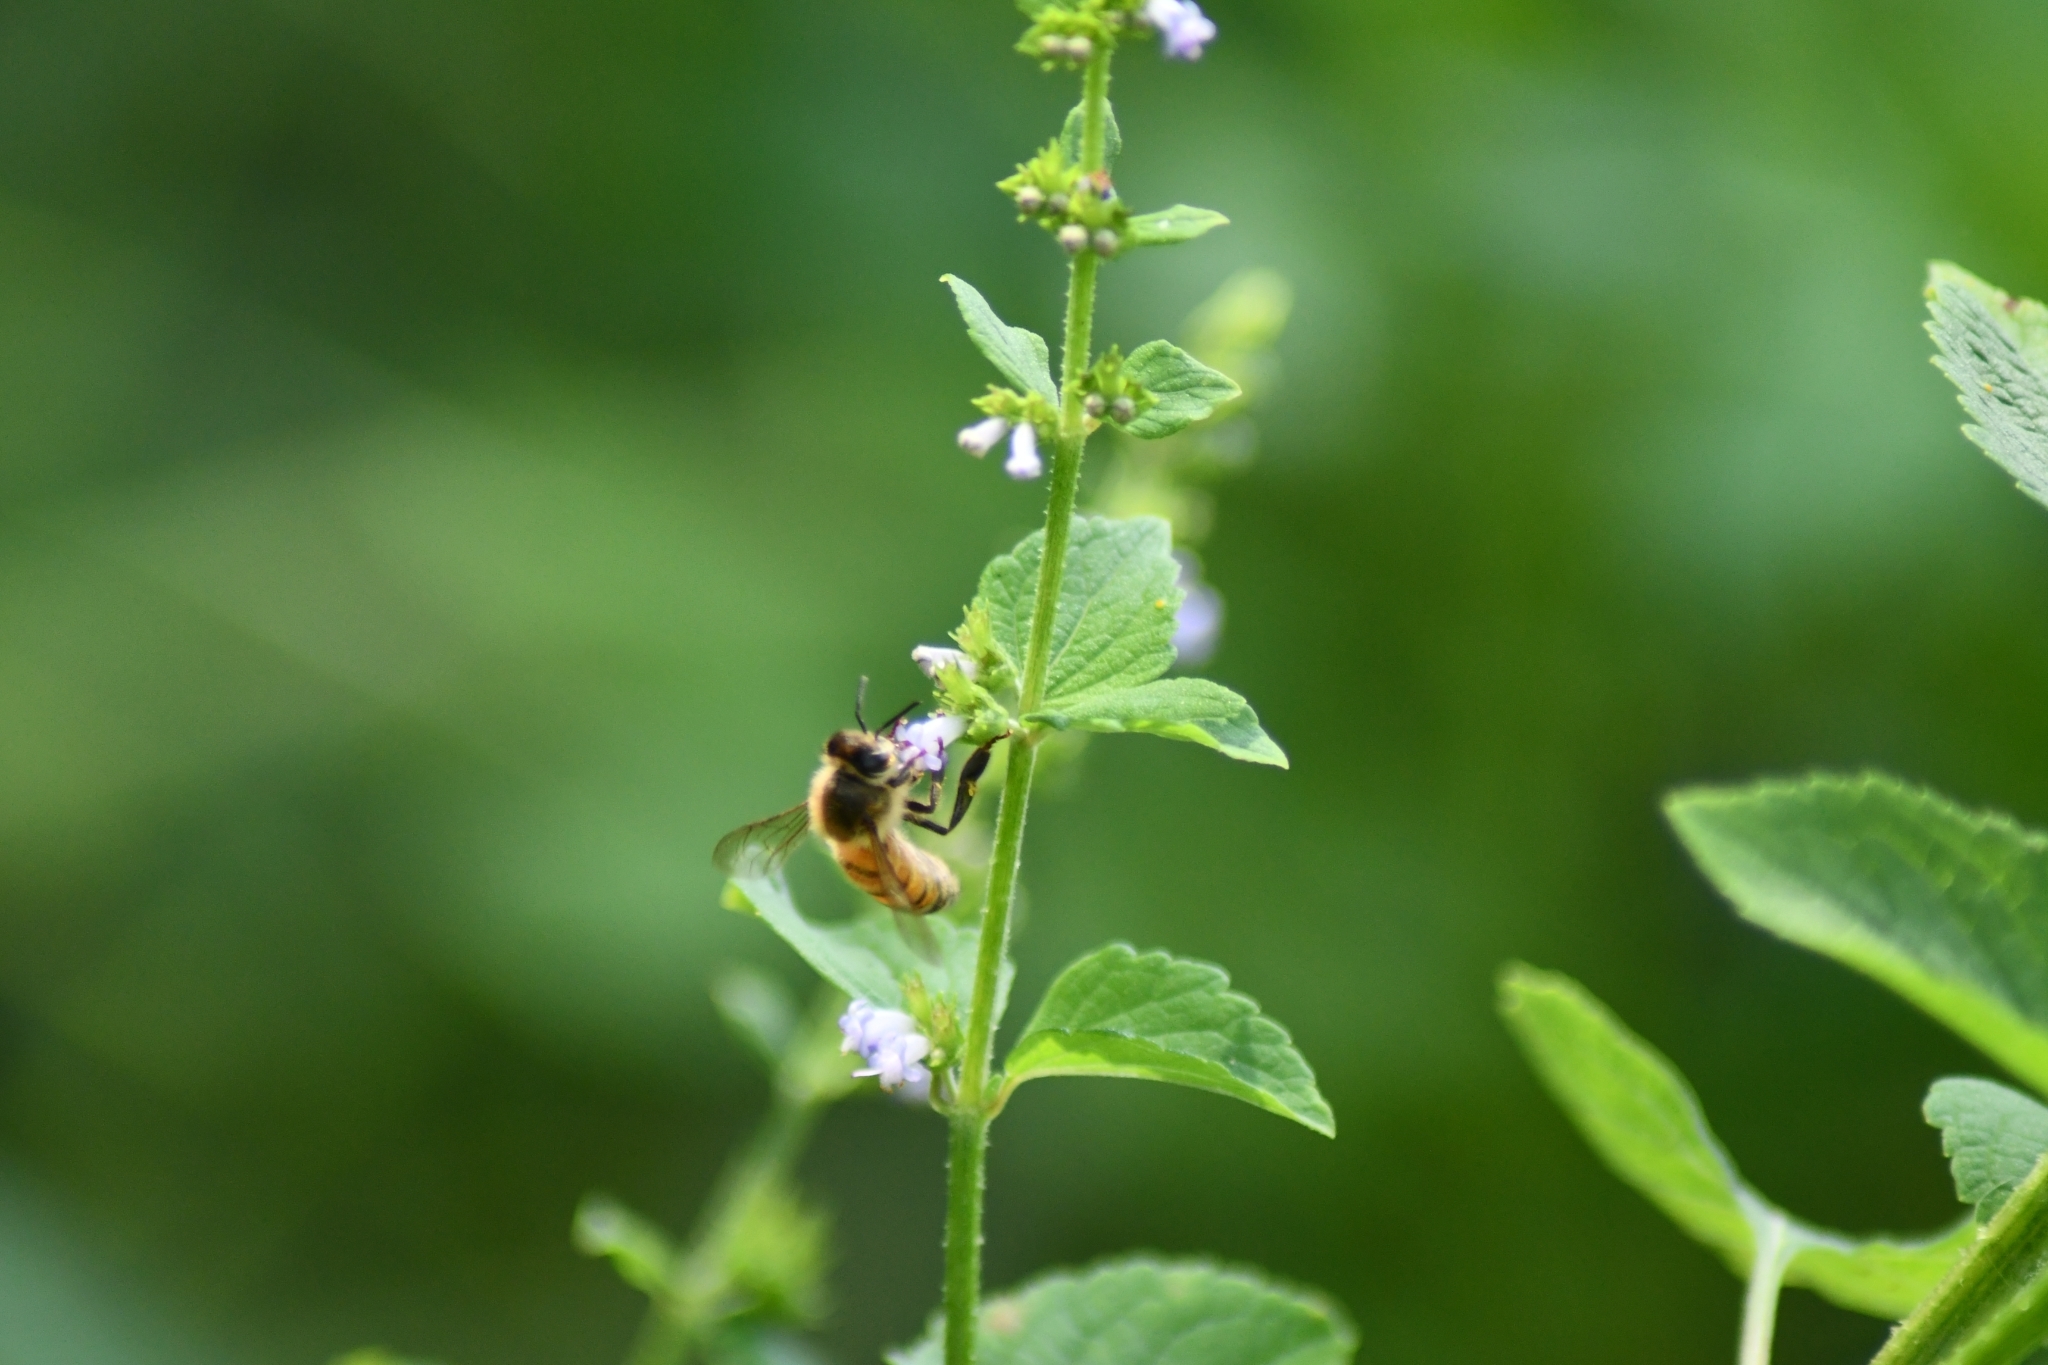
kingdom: Animalia
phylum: Arthropoda
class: Insecta
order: Hymenoptera
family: Apidae
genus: Apis
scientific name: Apis mellifera
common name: Honey bee
